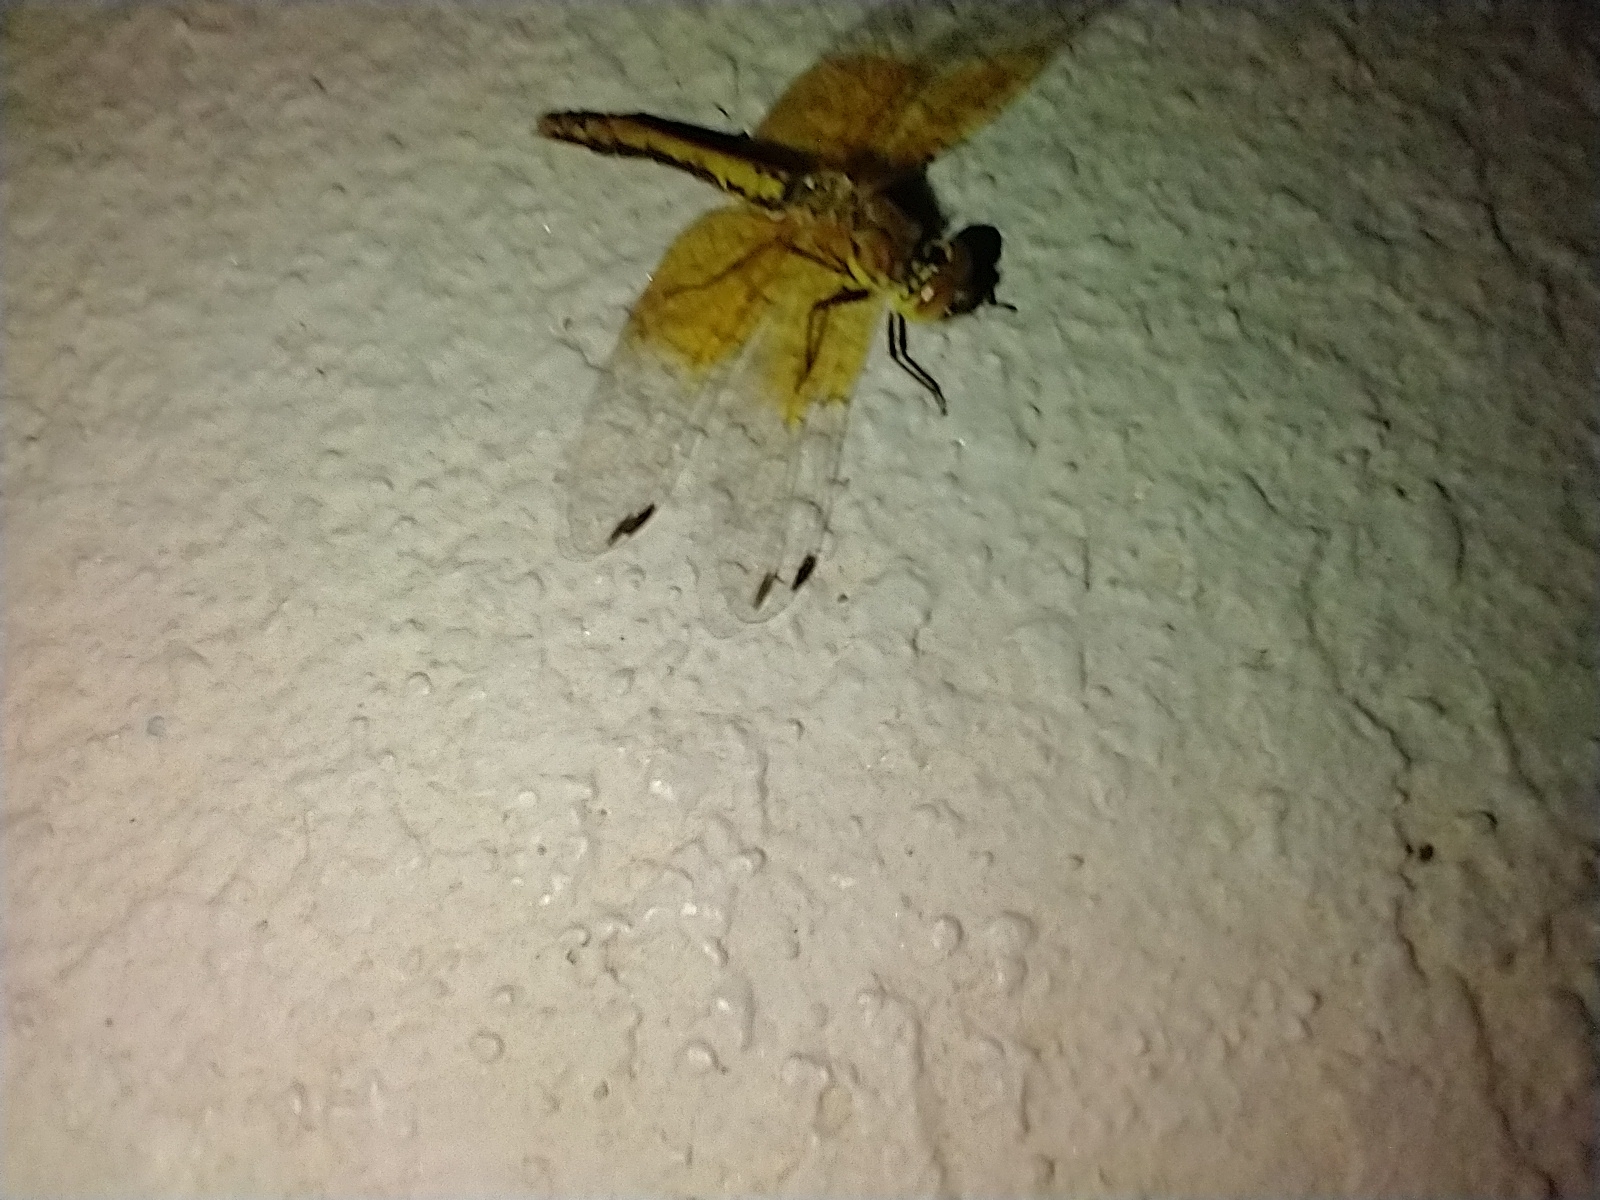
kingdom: Animalia
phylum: Arthropoda
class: Insecta
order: Odonata
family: Libellulidae
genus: Sympetrum
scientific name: Sympetrum semicinctum
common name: Band-winged meadowhawk
